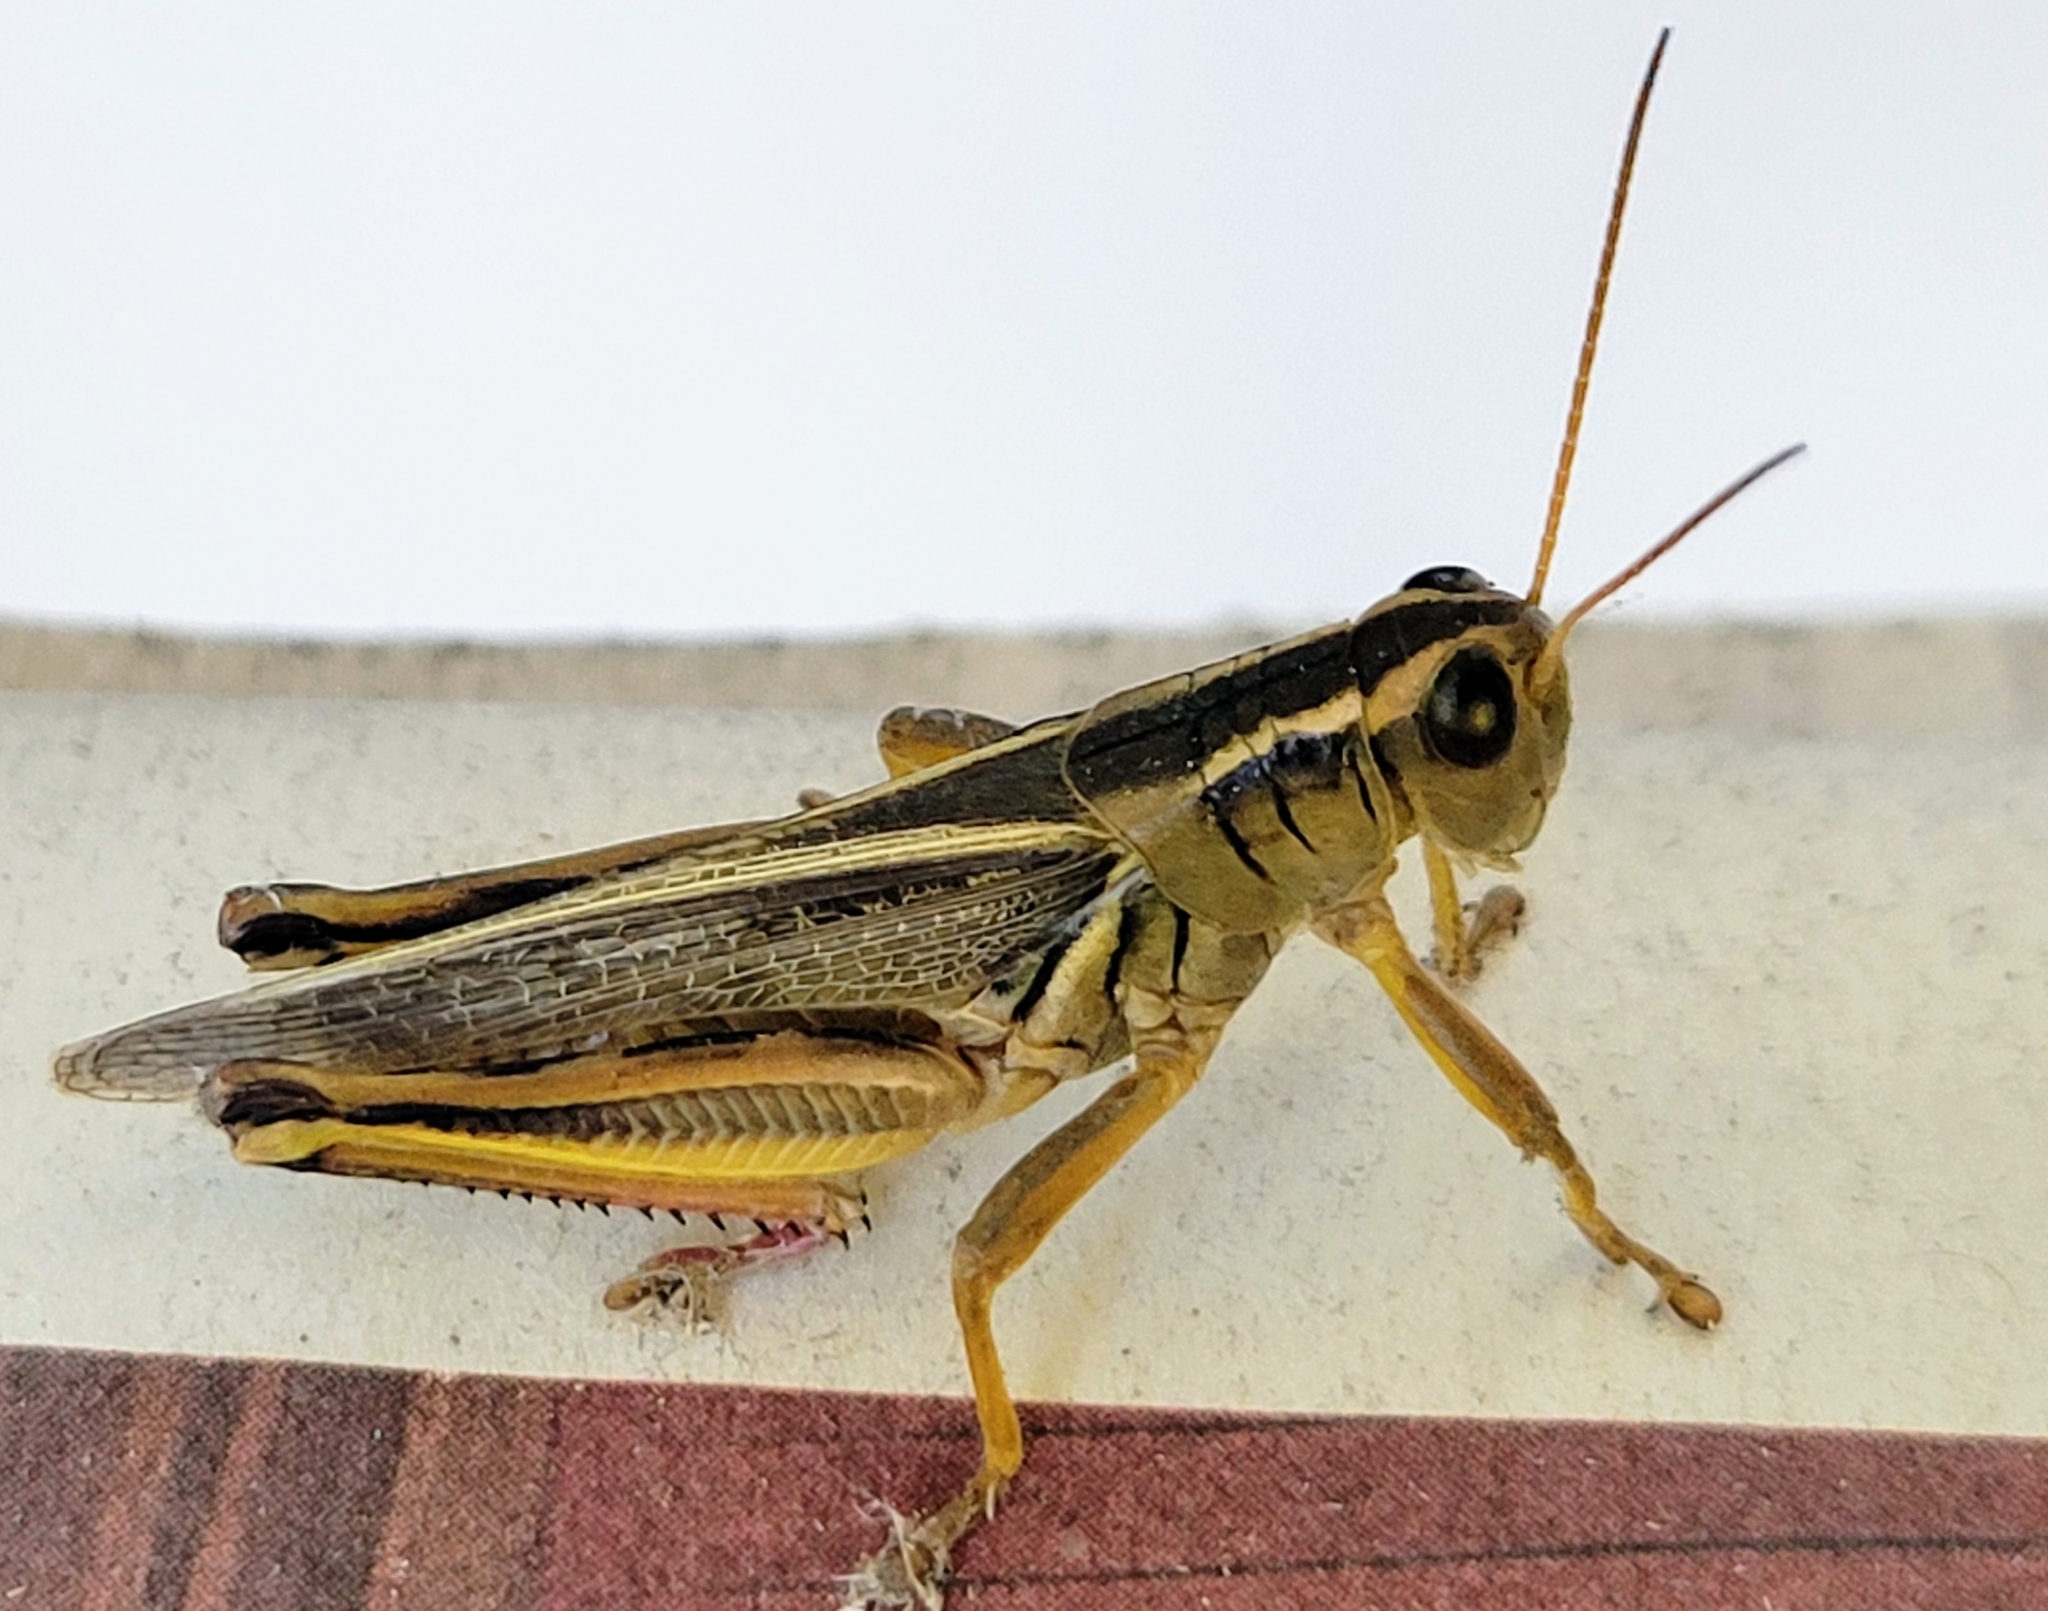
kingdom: Animalia
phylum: Arthropoda
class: Insecta
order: Orthoptera
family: Acrididae
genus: Melanoplus
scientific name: Melanoplus bivittatus
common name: Two-striped grasshopper
